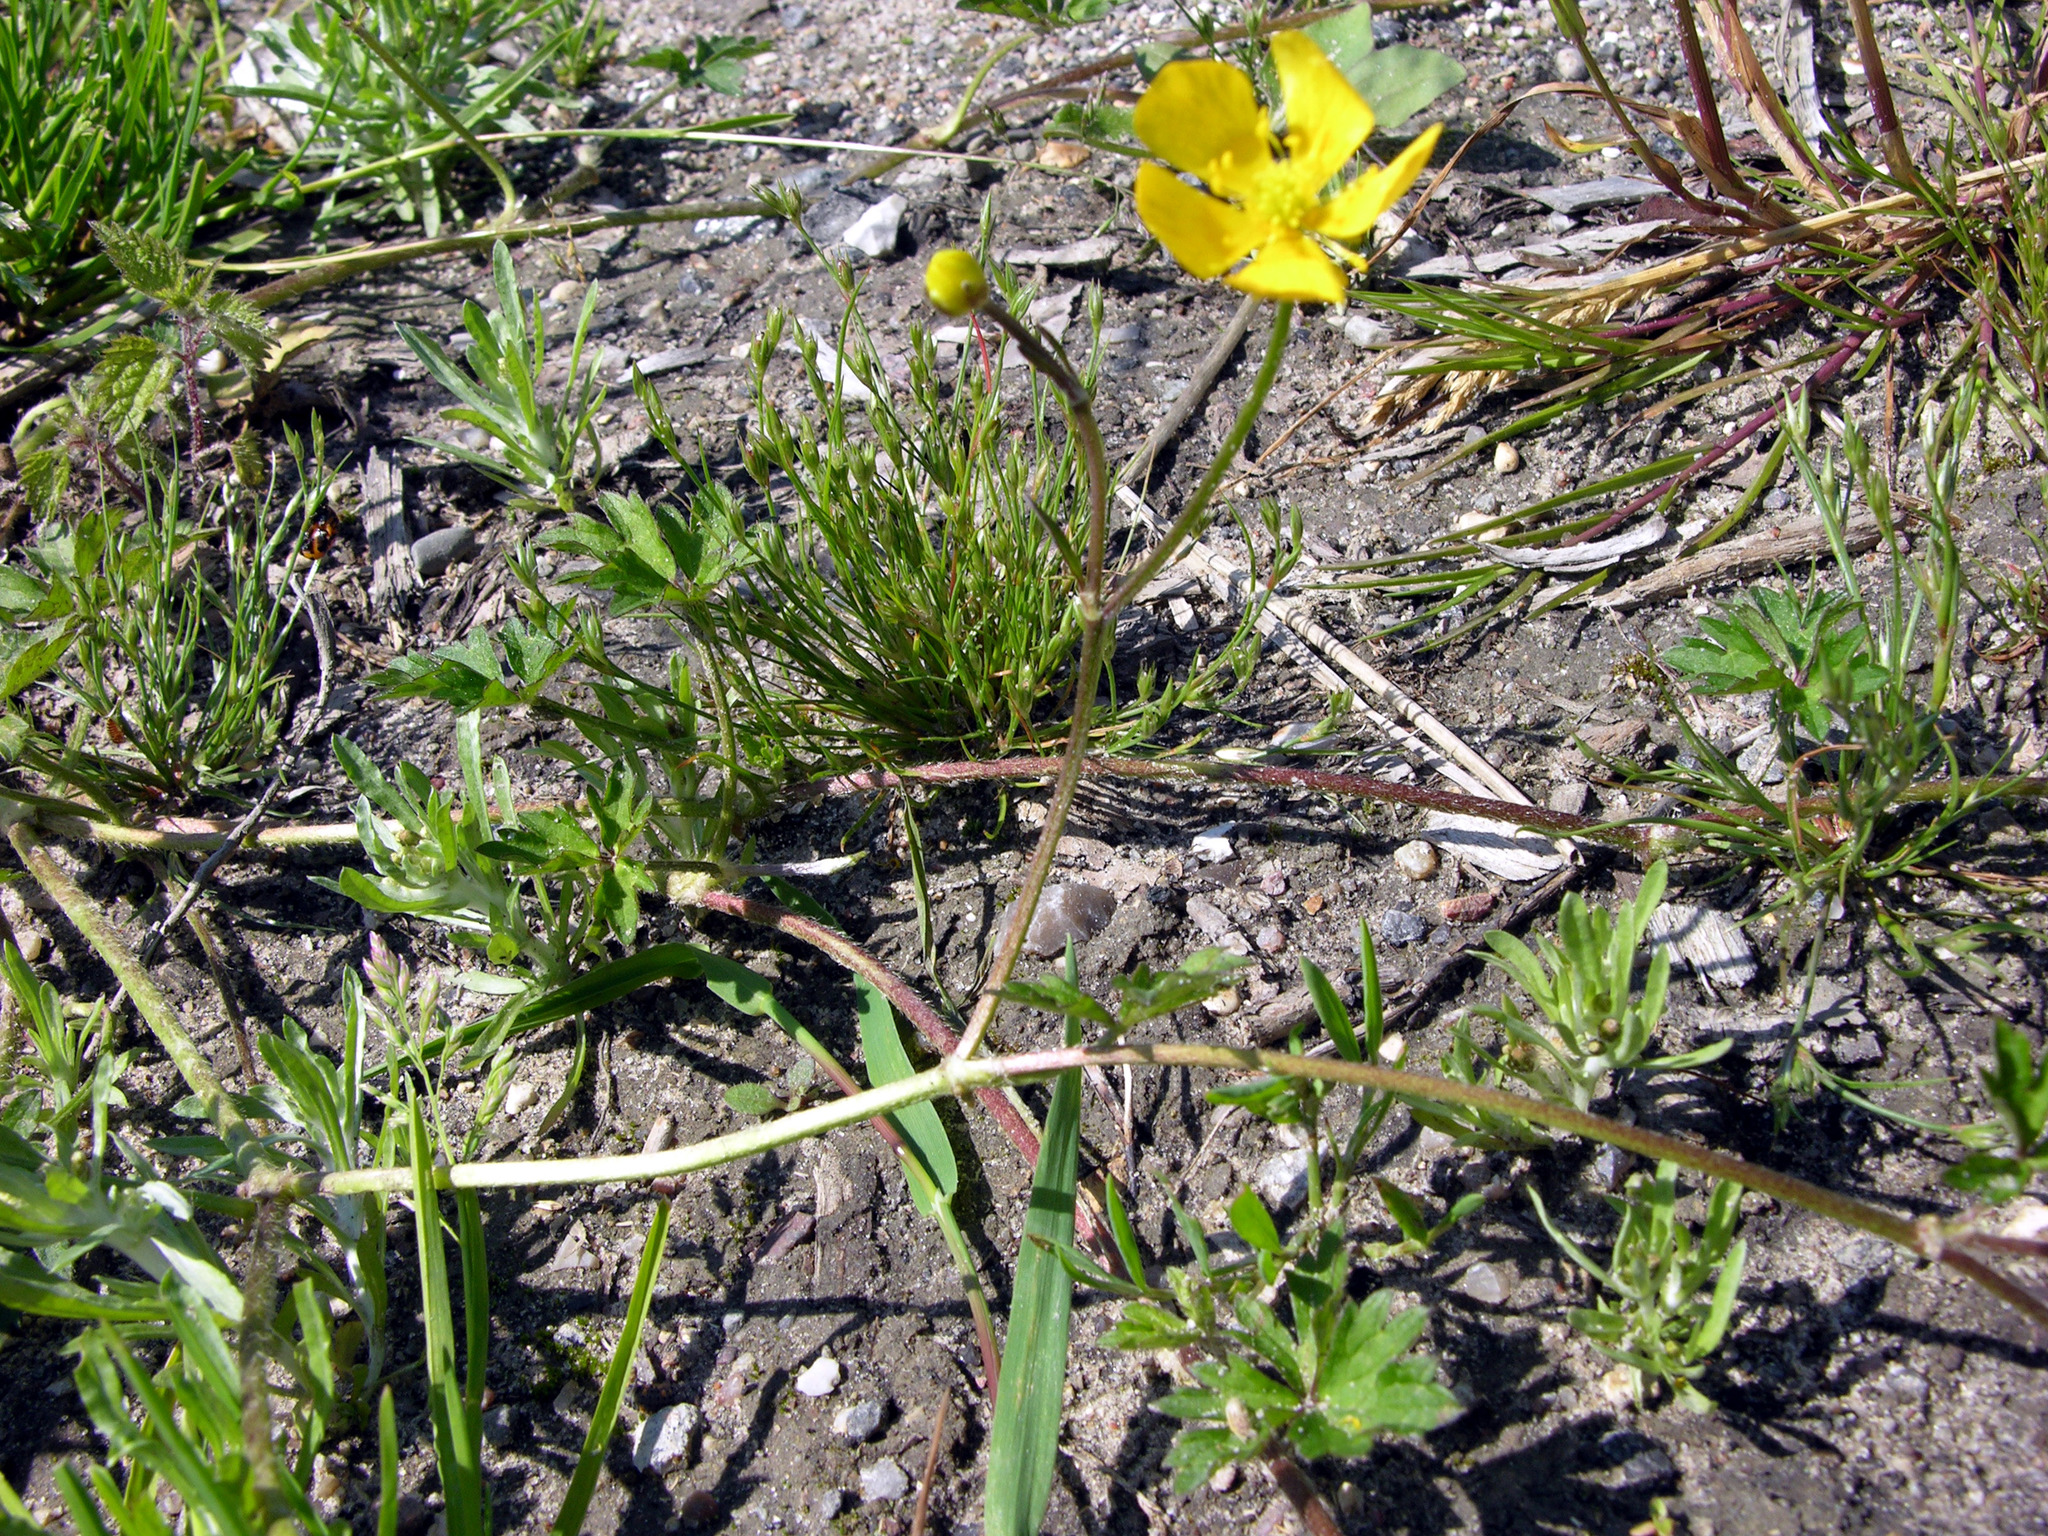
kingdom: Plantae
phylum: Tracheophyta
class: Magnoliopsida
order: Ranunculales
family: Ranunculaceae
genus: Ranunculus
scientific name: Ranunculus repens
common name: Creeping buttercup
